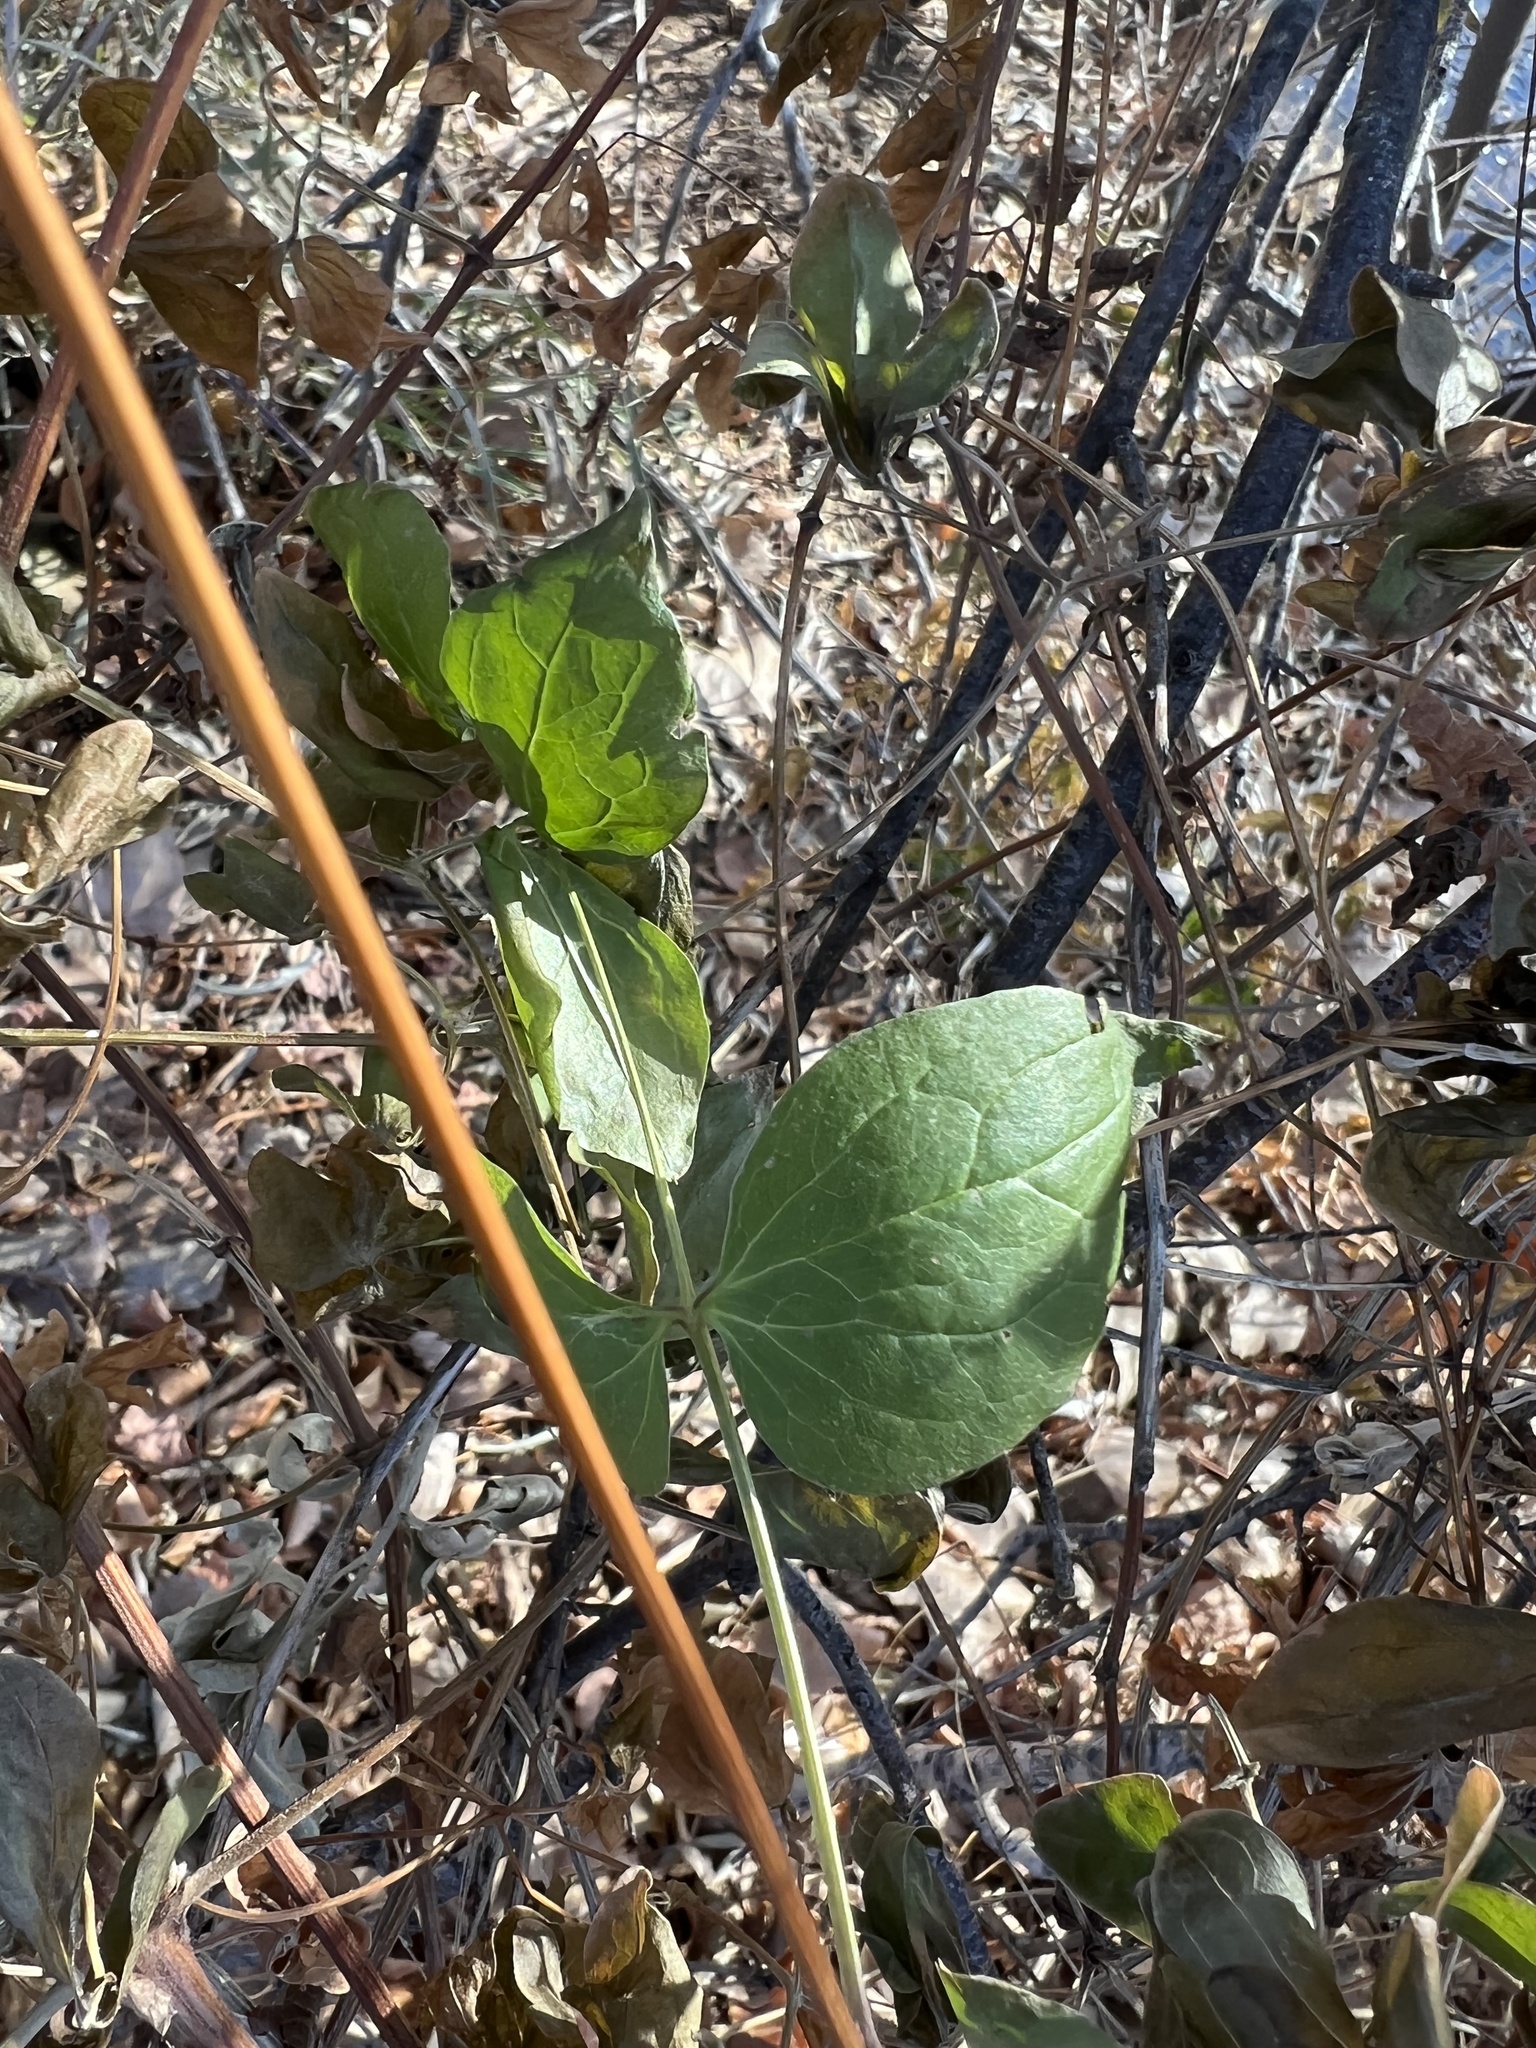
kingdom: Plantae
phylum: Tracheophyta
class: Magnoliopsida
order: Ranunculales
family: Ranunculaceae
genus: Clematis
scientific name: Clematis ligusticifolia
